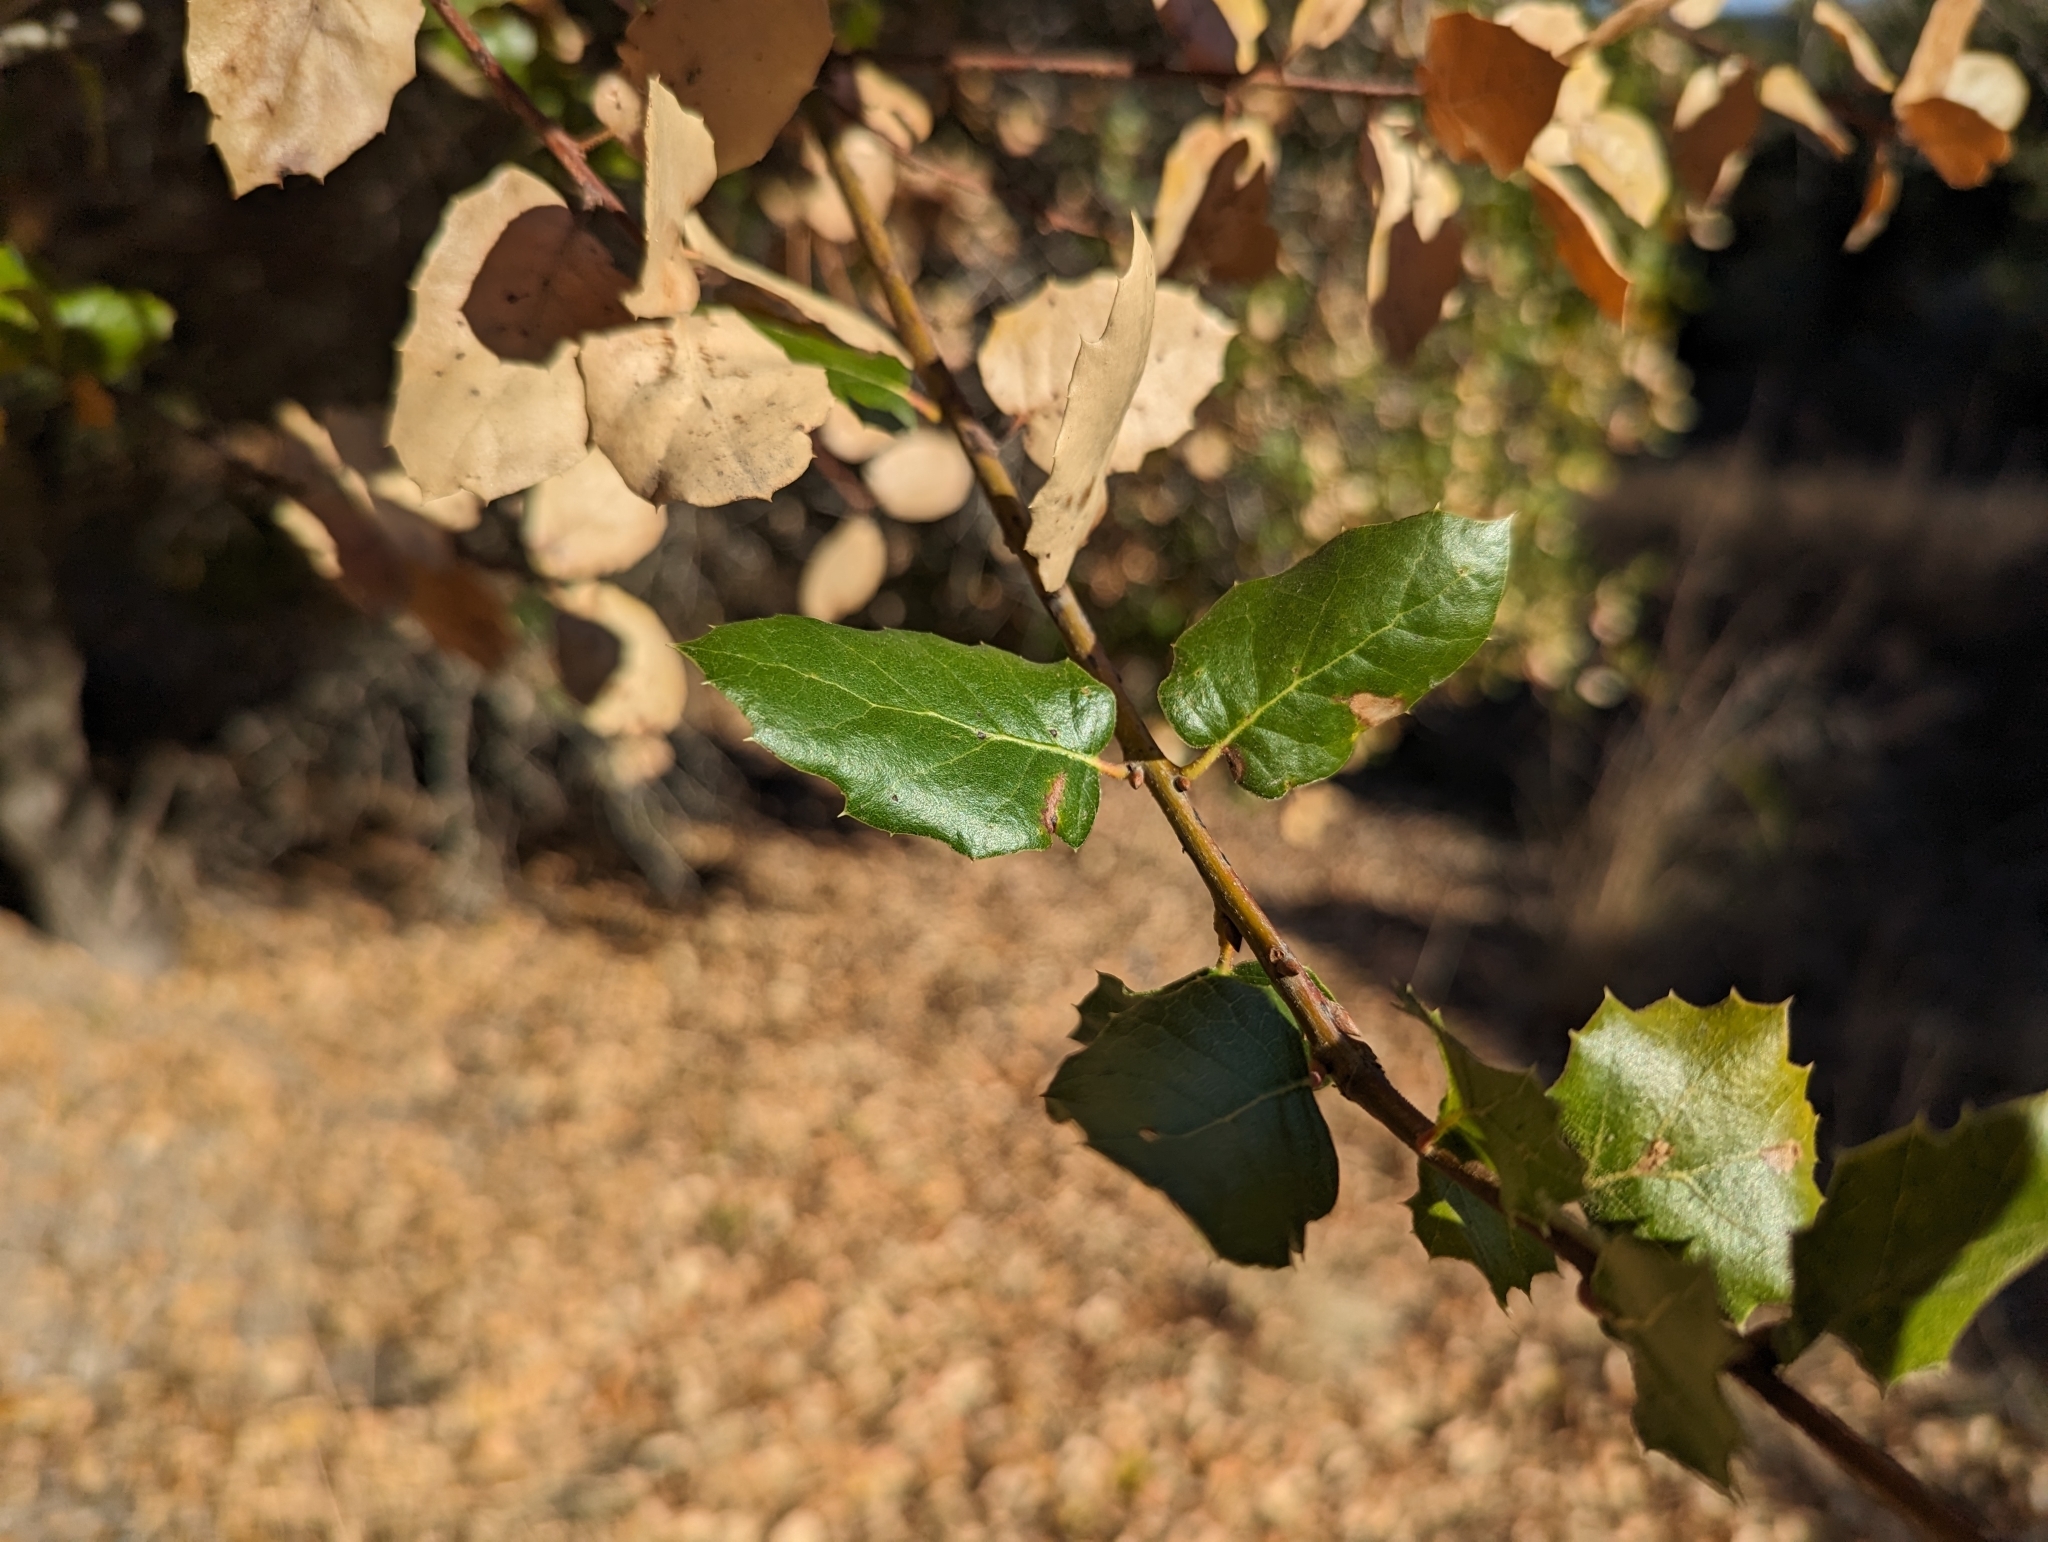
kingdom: Plantae
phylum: Tracheophyta
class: Magnoliopsida
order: Fagales
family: Fagaceae
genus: Quercus
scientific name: Quercus agrifolia
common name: California live oak
